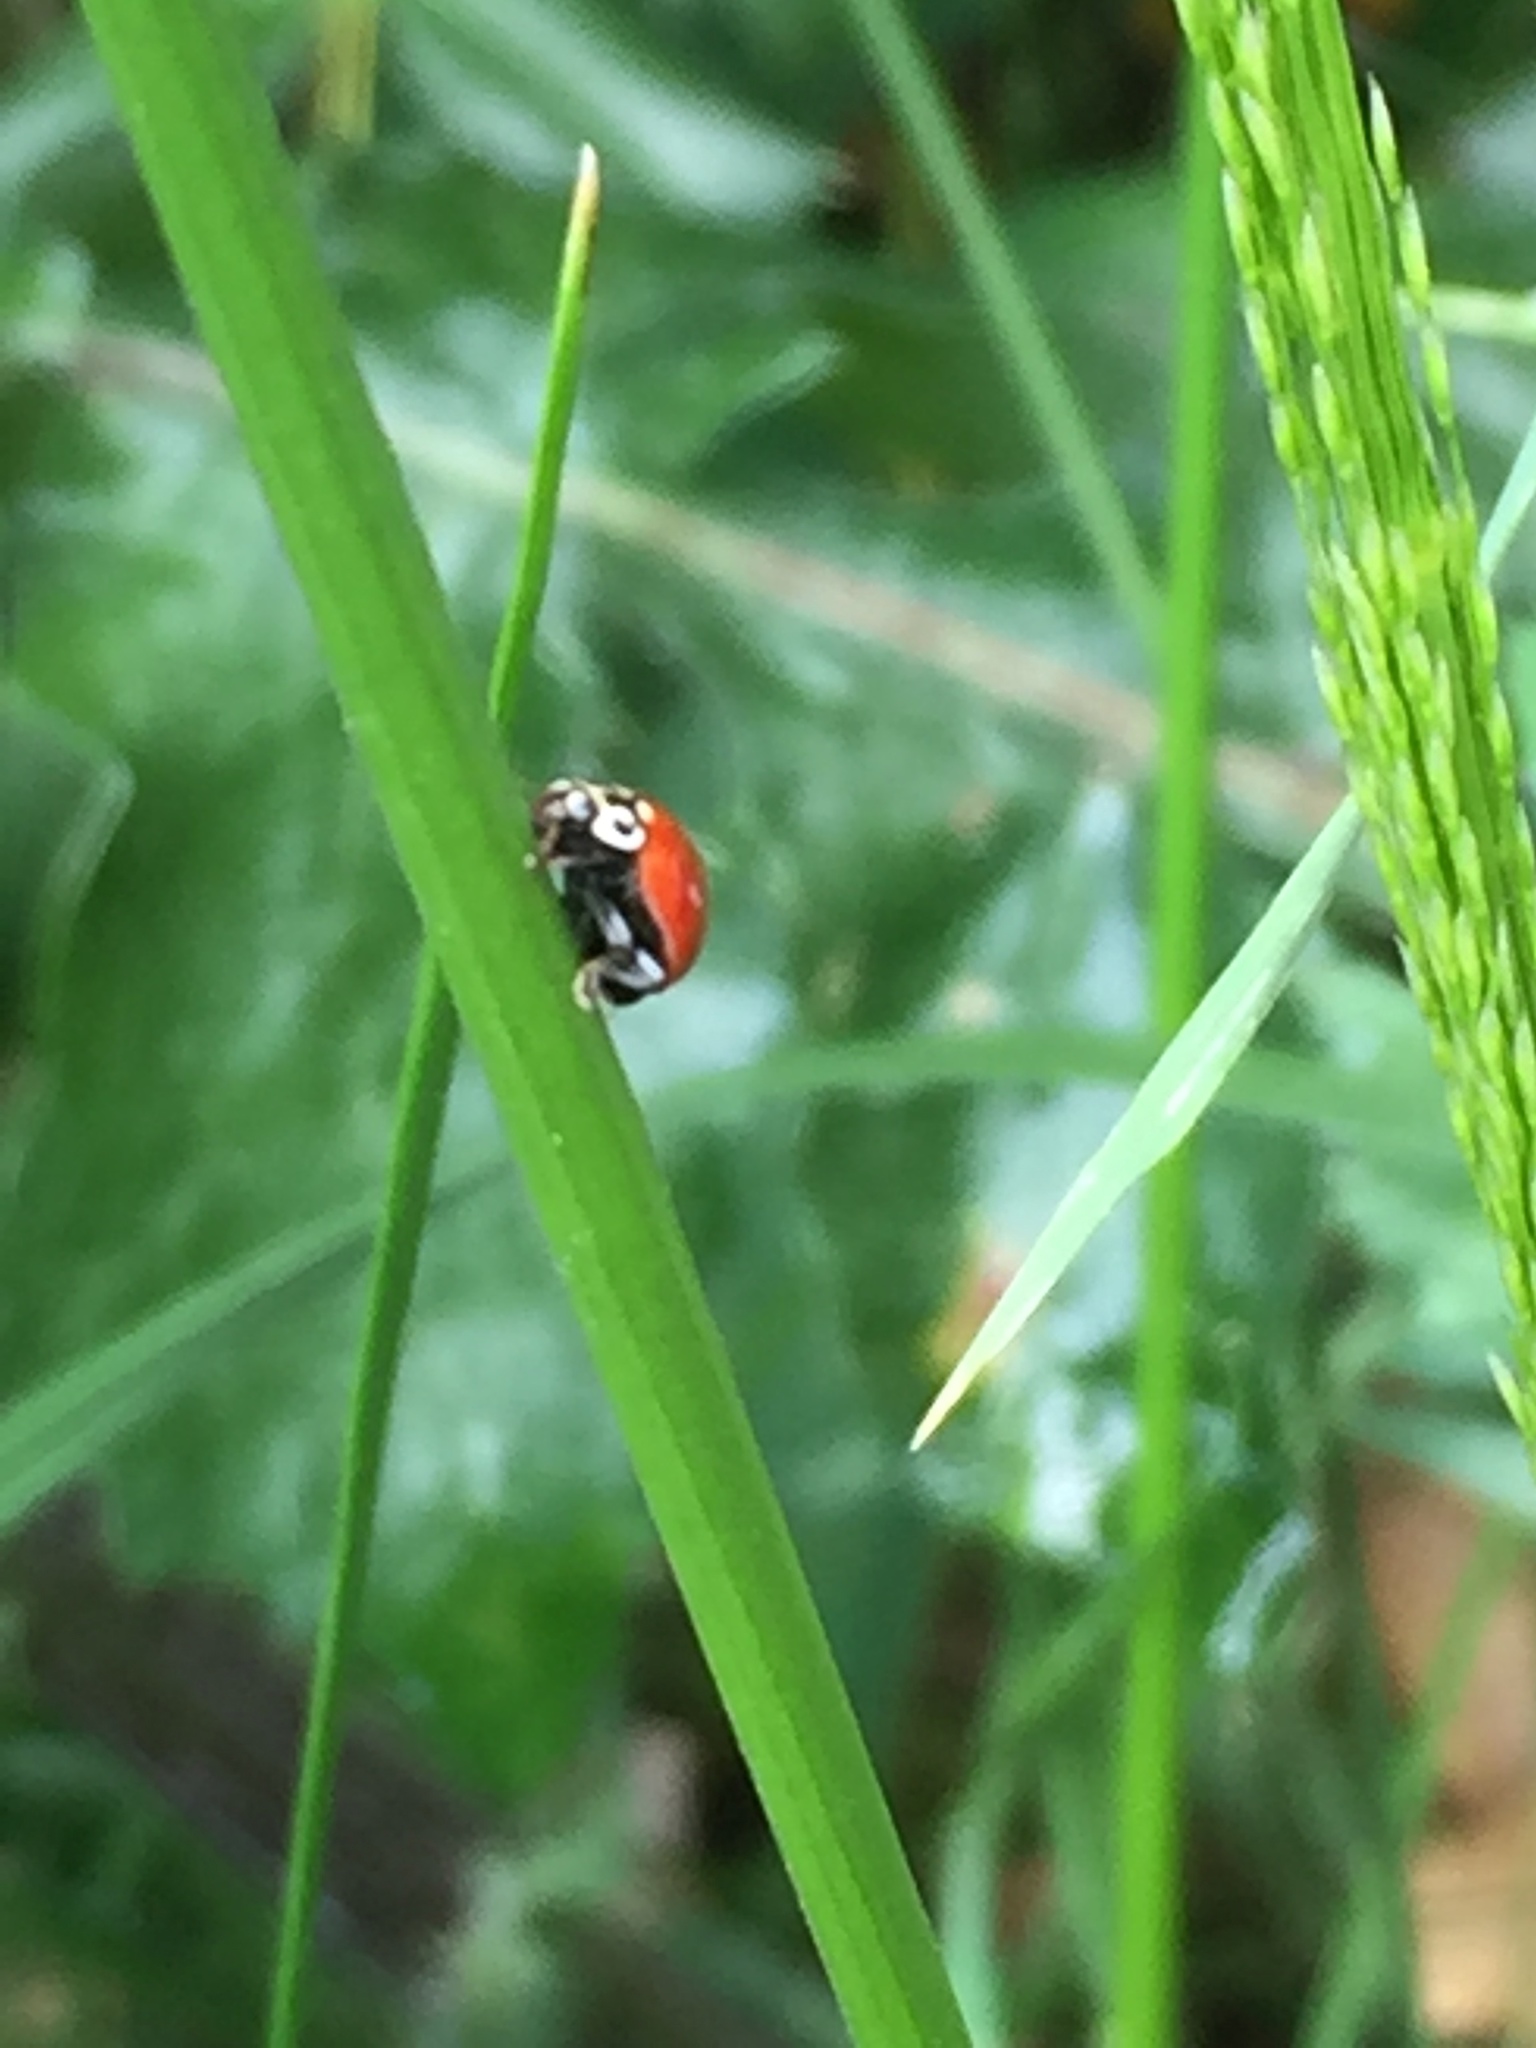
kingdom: Animalia
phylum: Arthropoda
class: Insecta
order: Coleoptera
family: Coccinellidae
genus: Cycloneda
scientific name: Cycloneda polita
